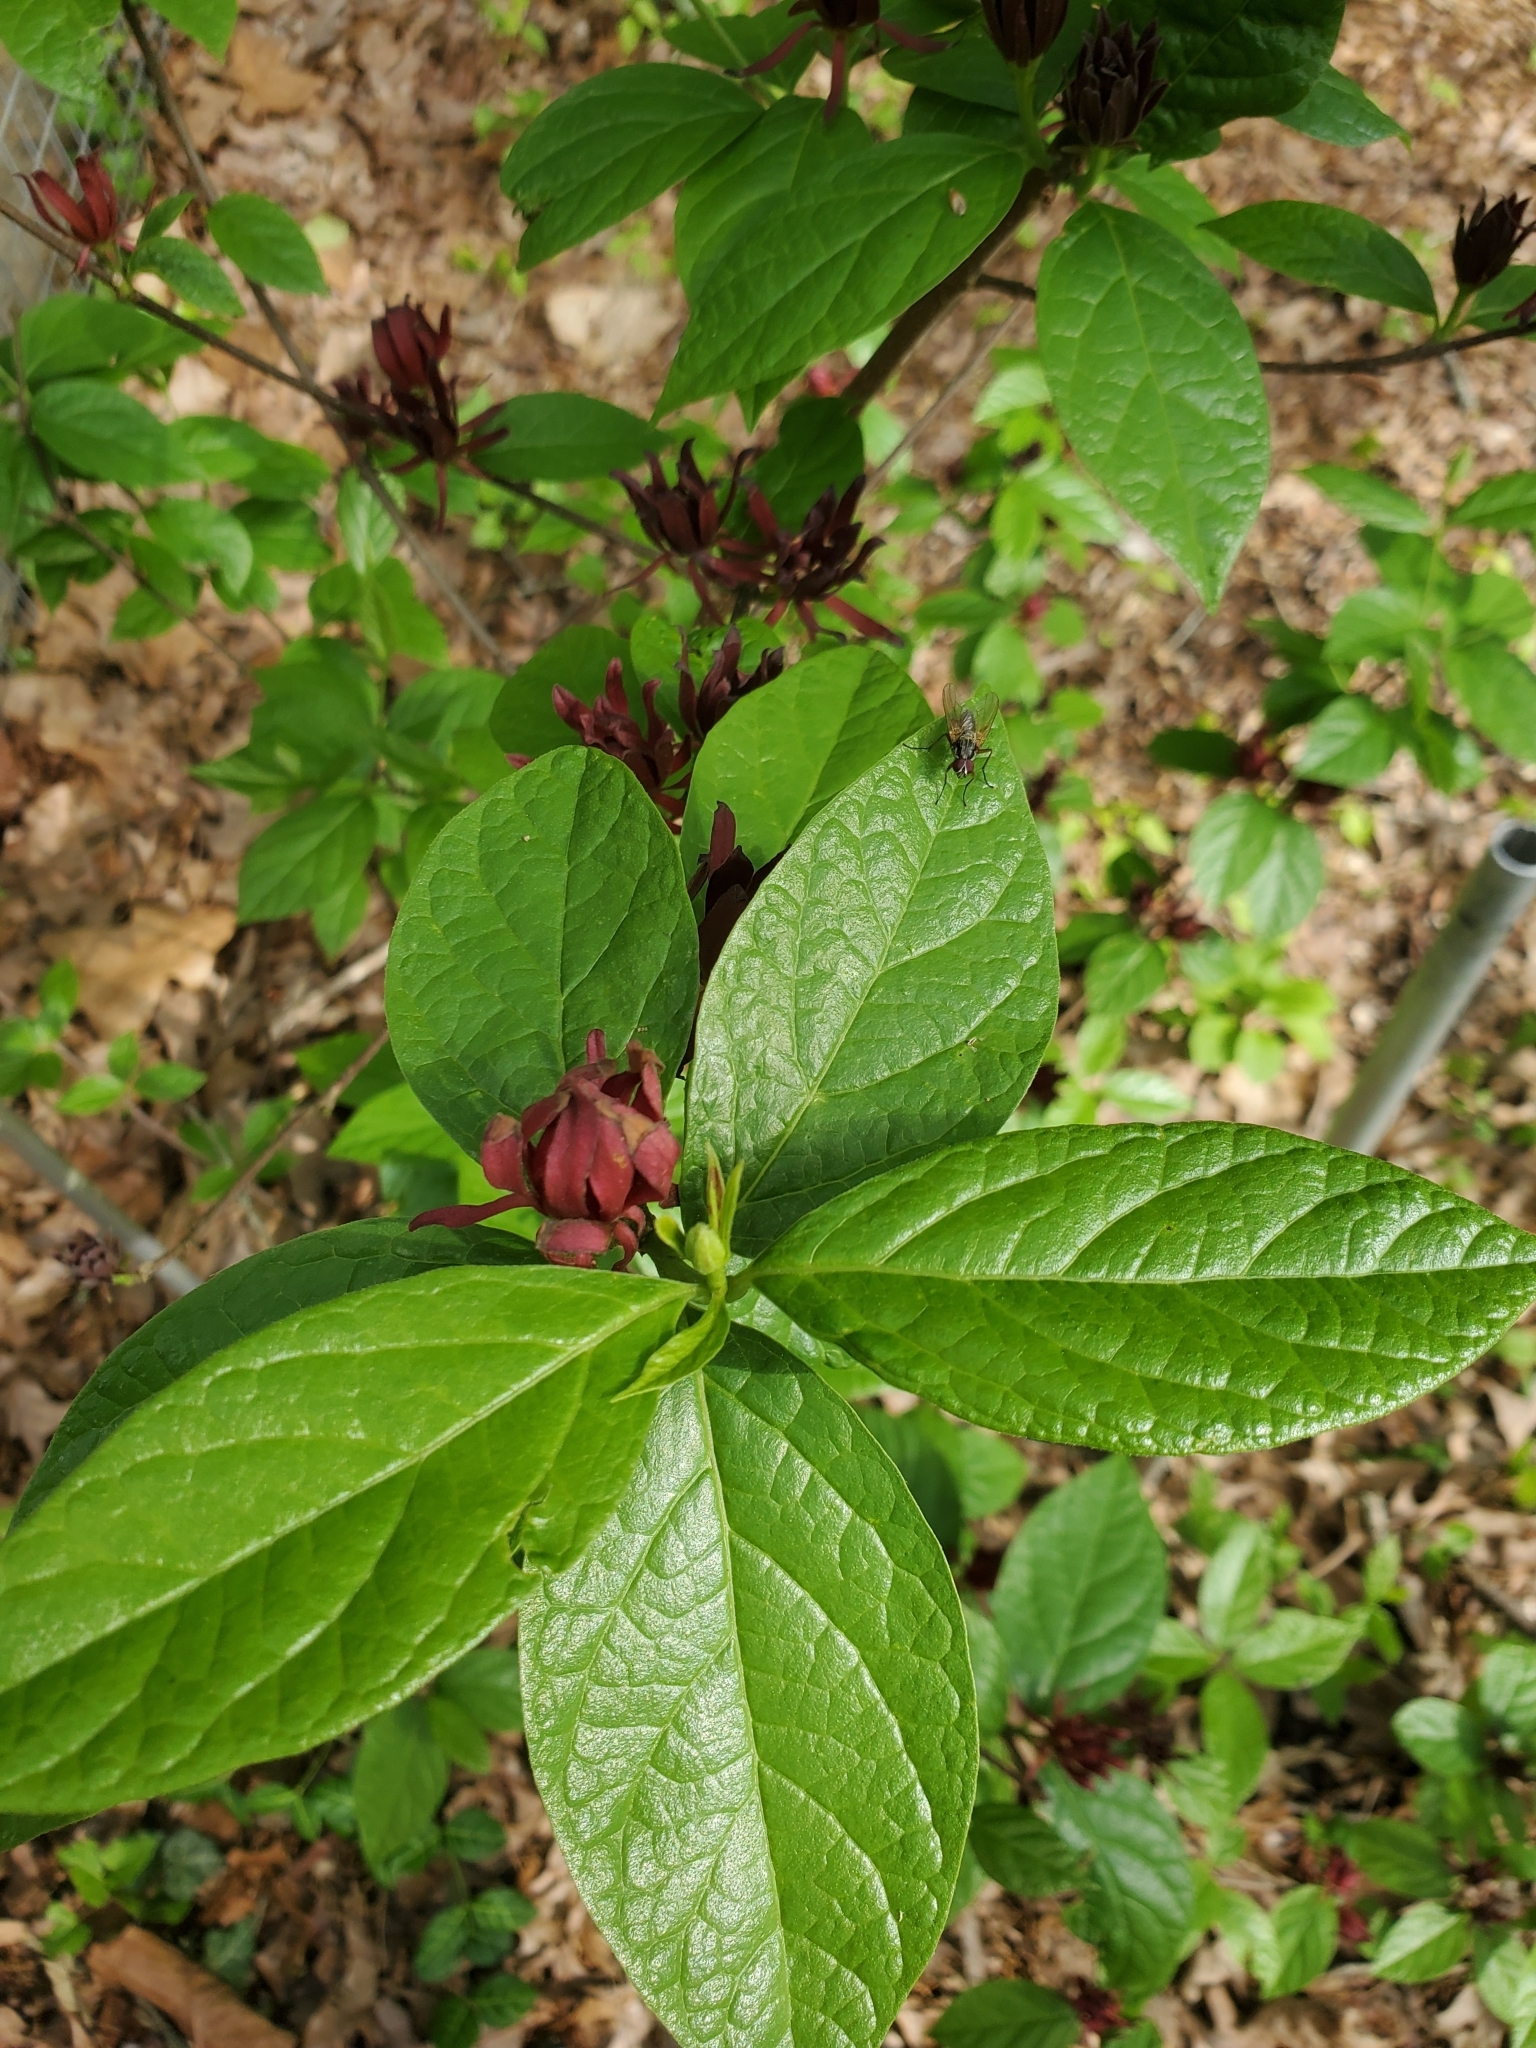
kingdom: Plantae
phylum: Tracheophyta
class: Magnoliopsida
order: Laurales
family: Calycanthaceae
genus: Calycanthus
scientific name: Calycanthus floridus
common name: Carolina-allspice
